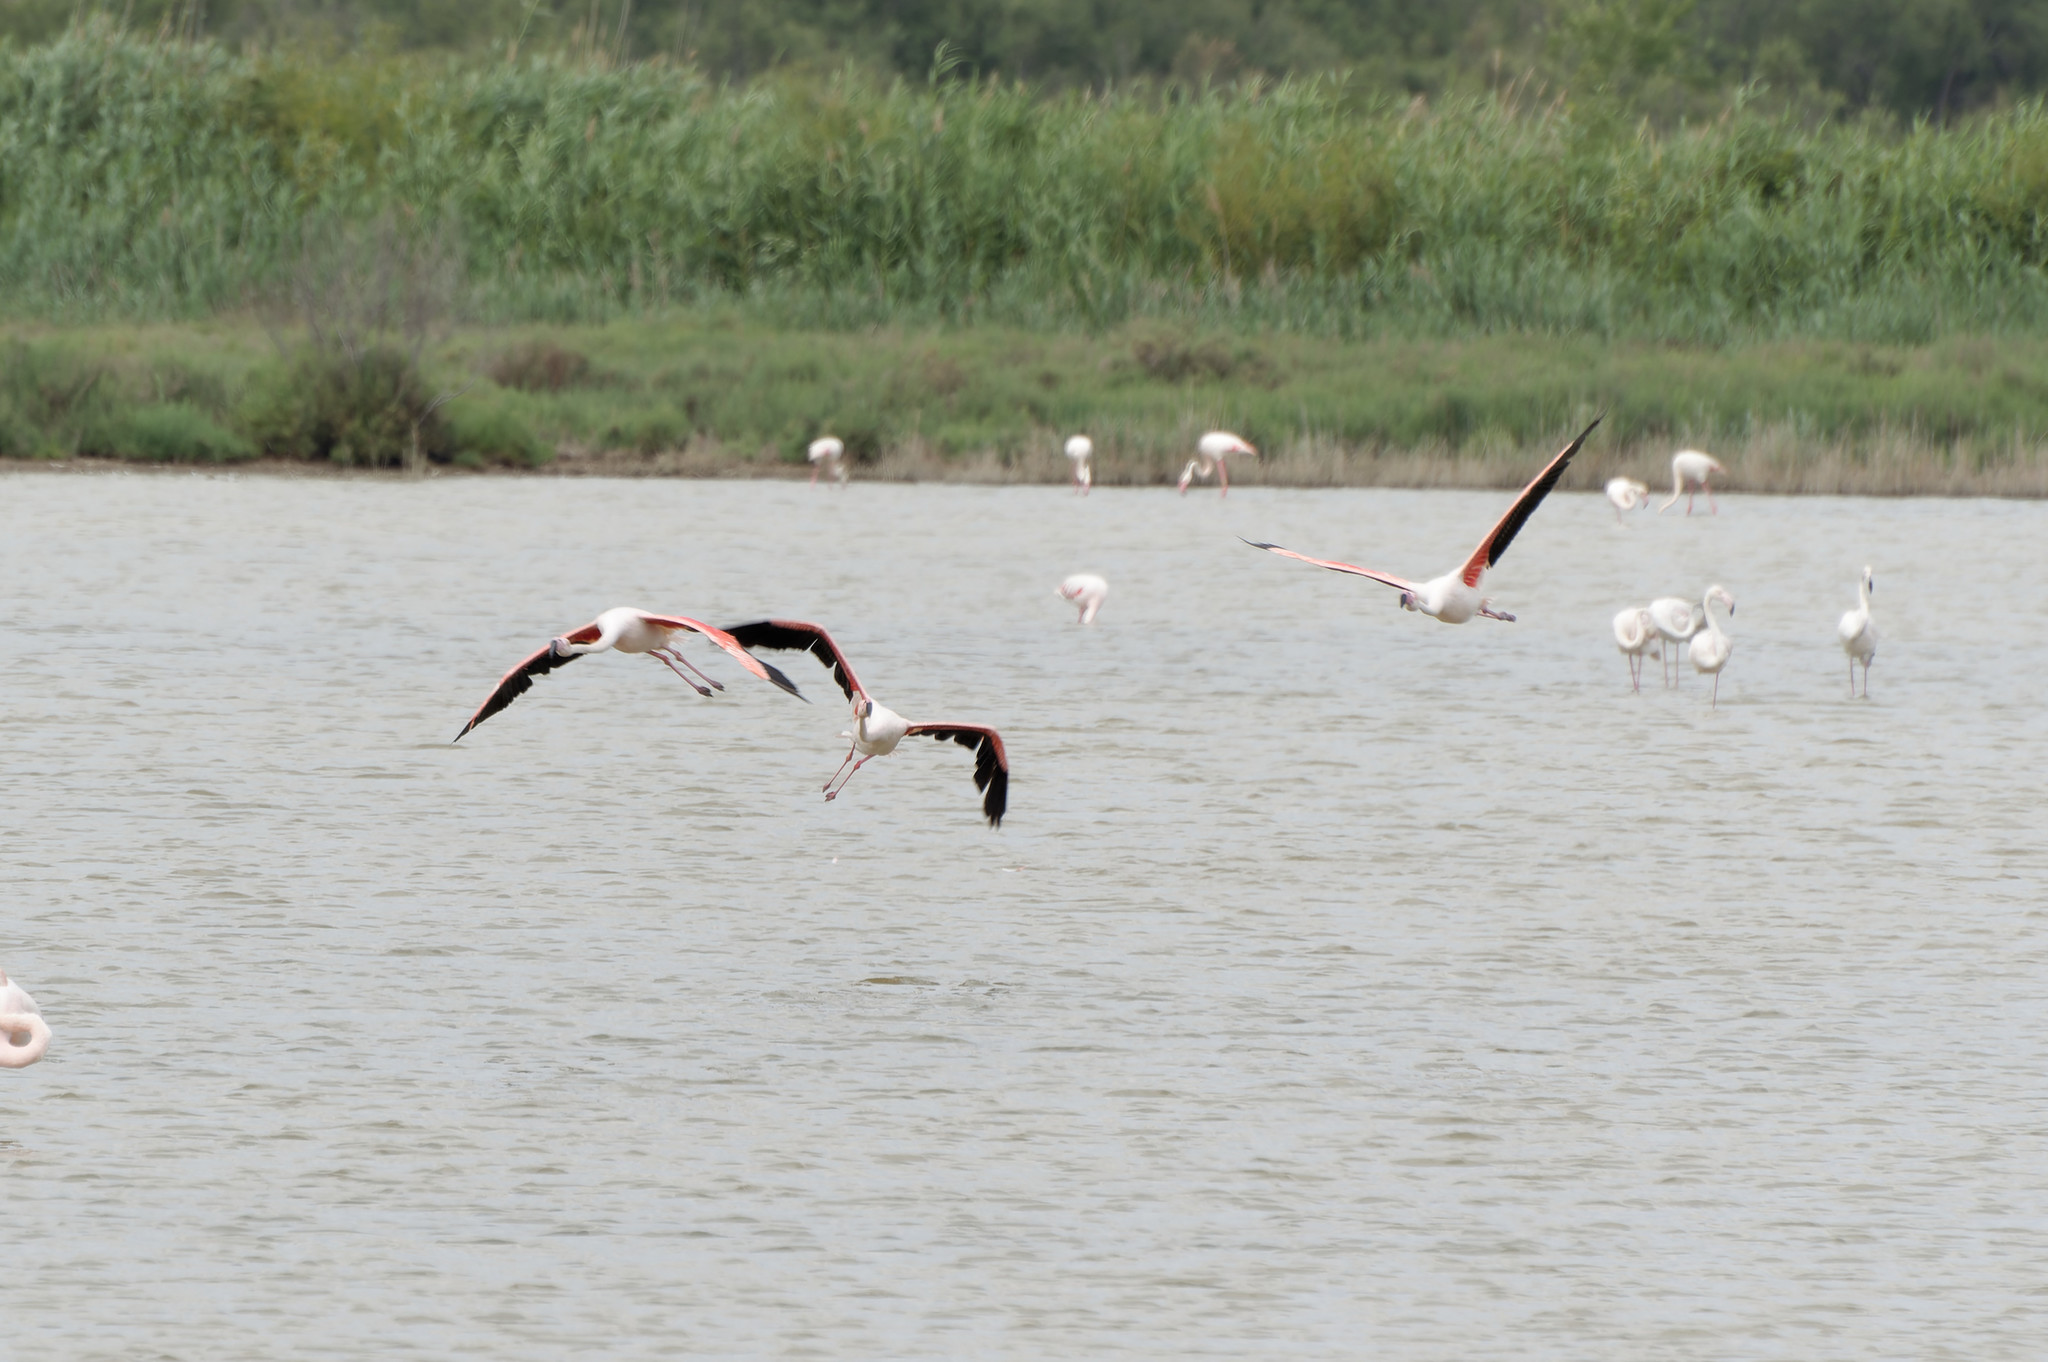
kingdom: Animalia
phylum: Chordata
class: Aves
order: Phoenicopteriformes
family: Phoenicopteridae
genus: Phoenicopterus
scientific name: Phoenicopterus roseus
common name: Greater flamingo
